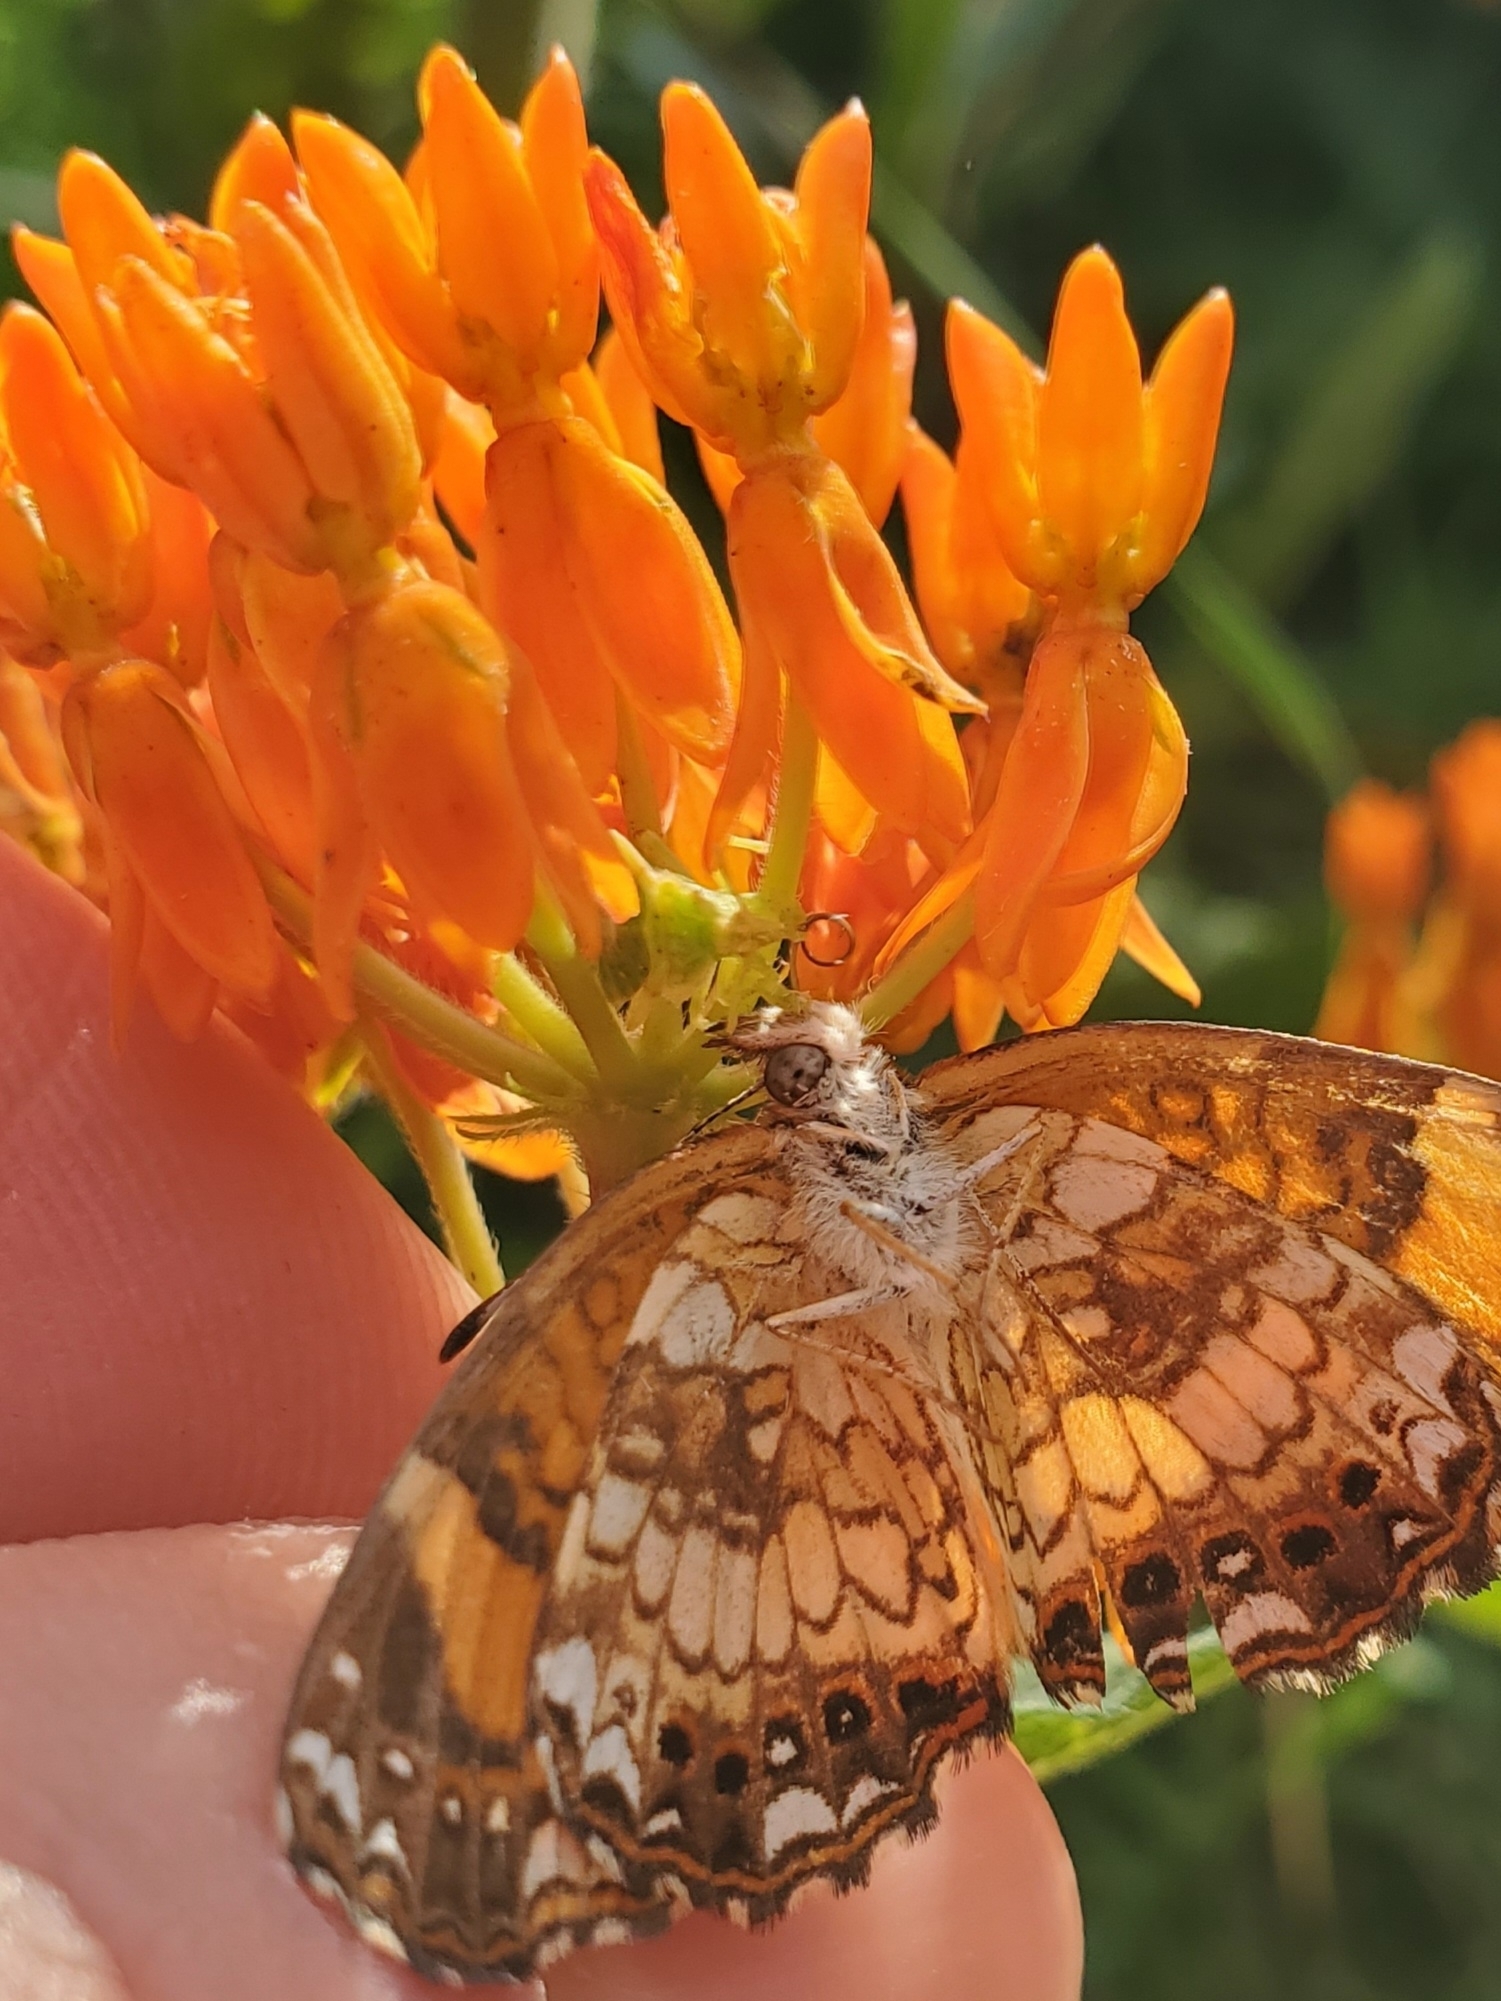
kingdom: Animalia
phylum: Arthropoda
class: Insecta
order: Lepidoptera
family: Nymphalidae
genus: Chlosyne
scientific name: Chlosyne nycteis
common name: Silvery checkerspot
